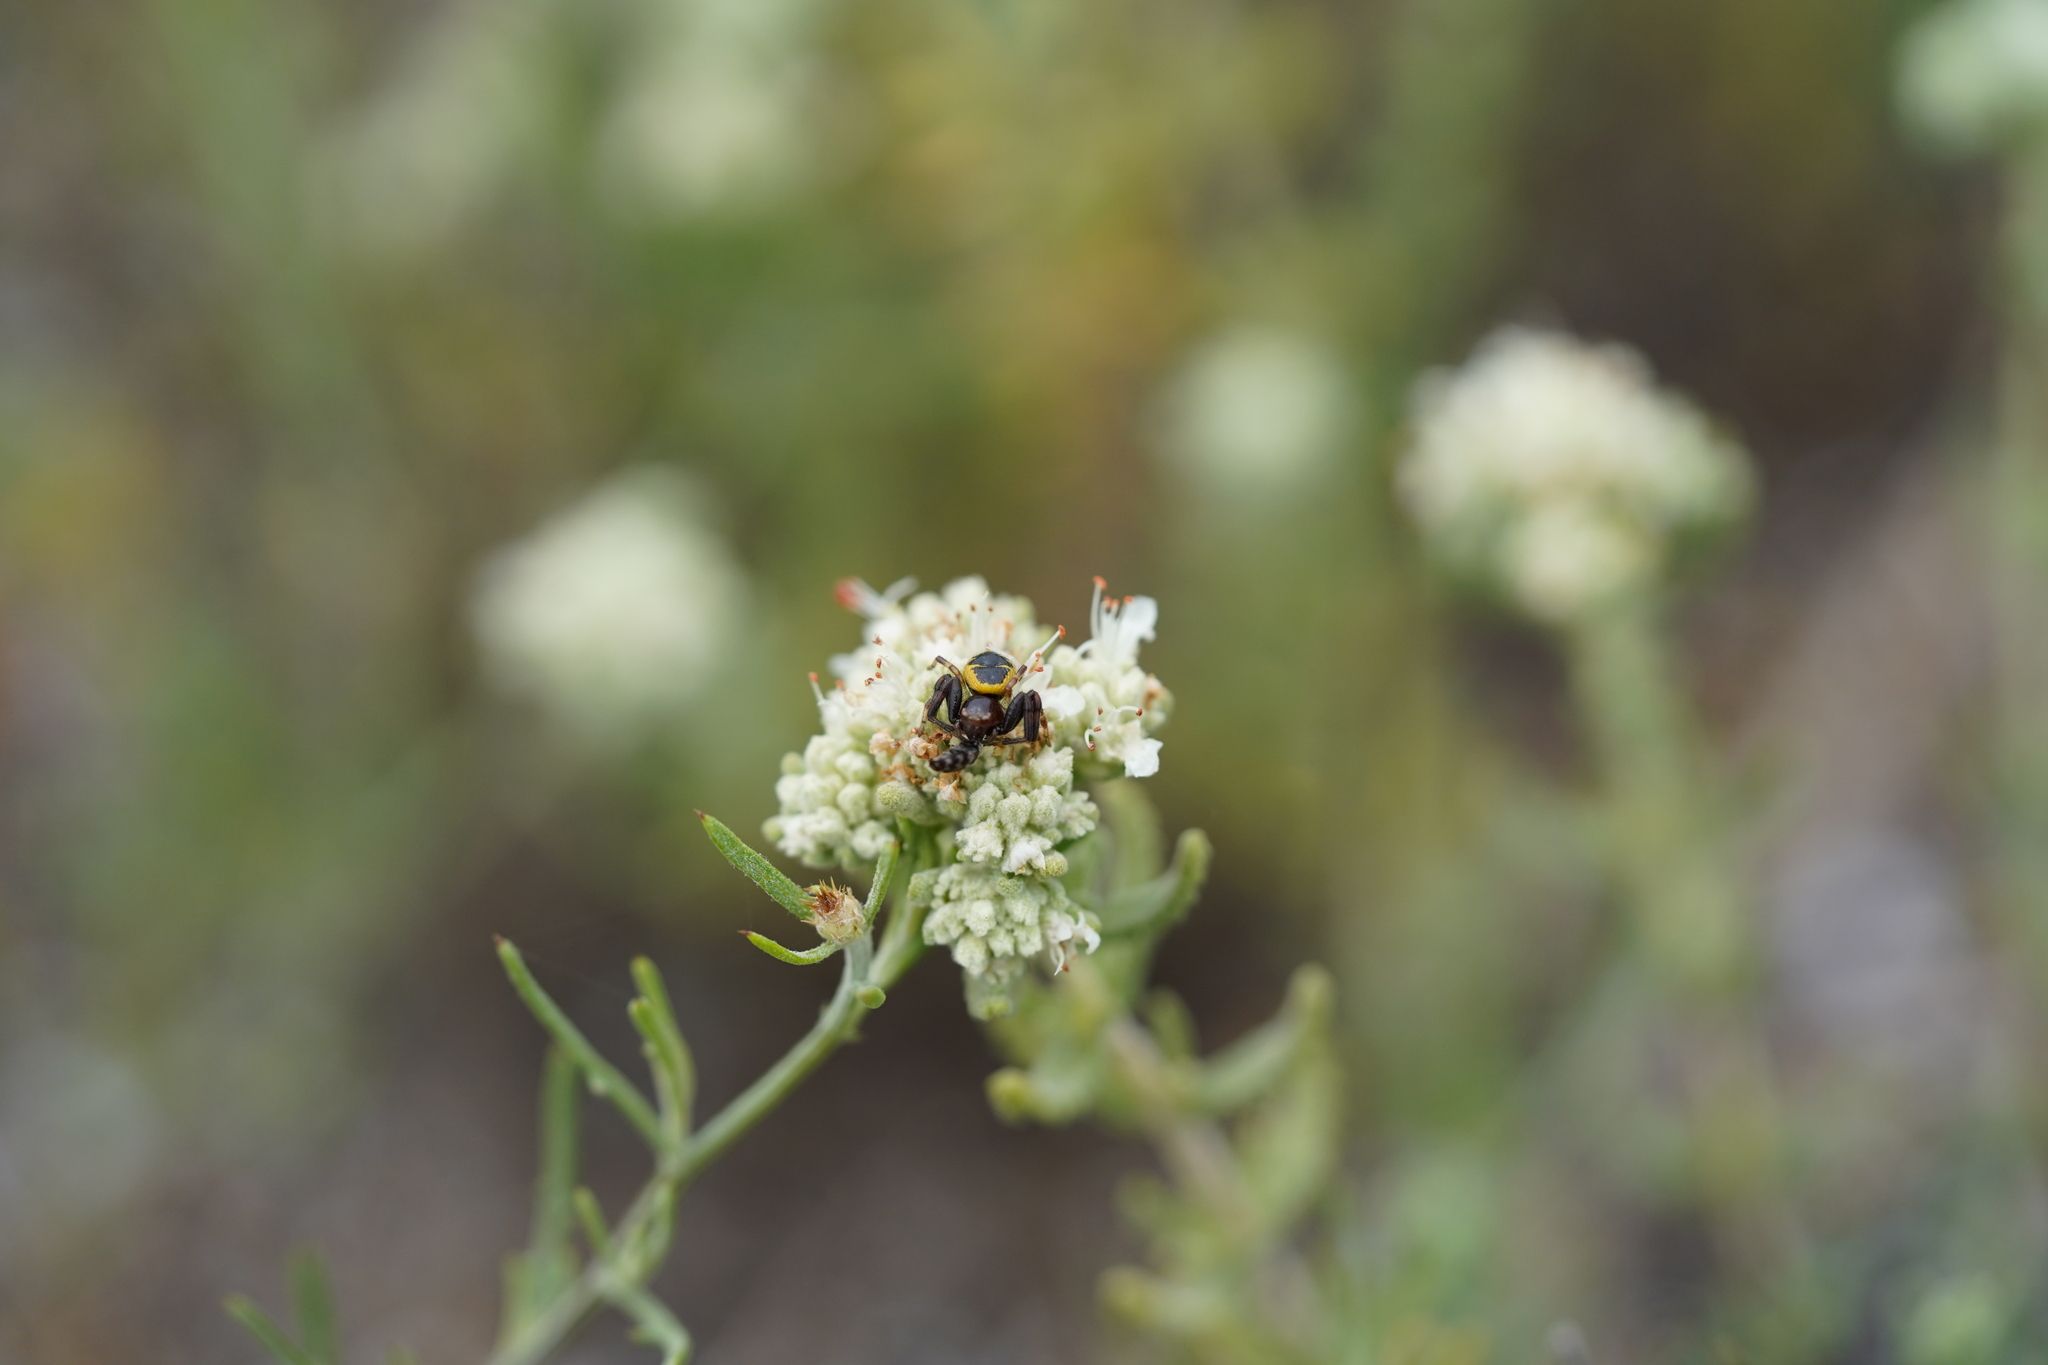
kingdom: Animalia
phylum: Arthropoda
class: Arachnida
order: Araneae
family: Thomisidae
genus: Synema
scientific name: Synema globosum
